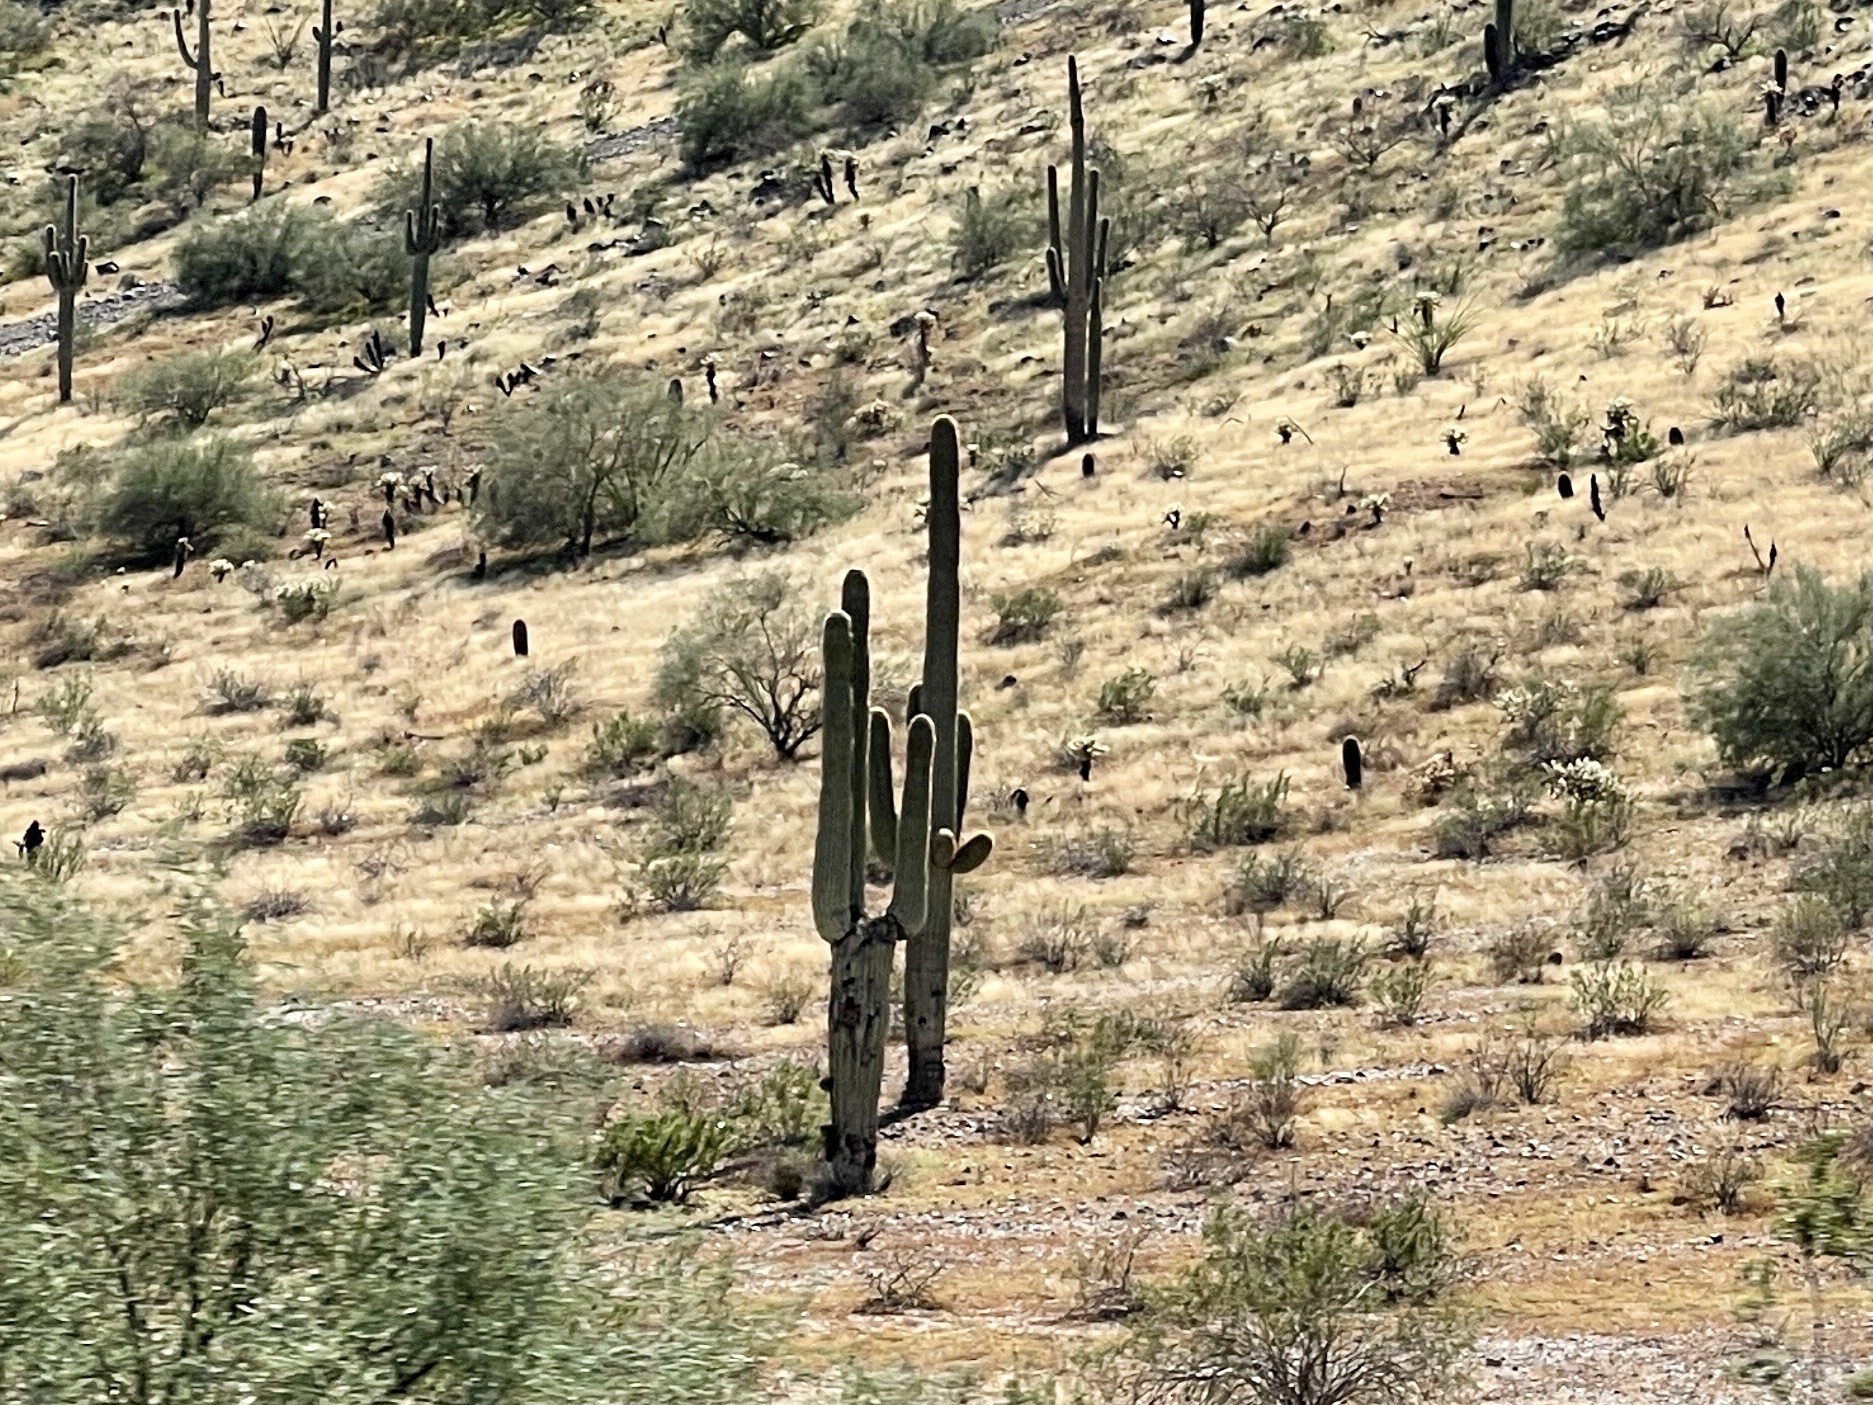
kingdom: Plantae
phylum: Tracheophyta
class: Magnoliopsida
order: Caryophyllales
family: Cactaceae
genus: Carnegiea
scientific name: Carnegiea gigantea
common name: Saguaro
